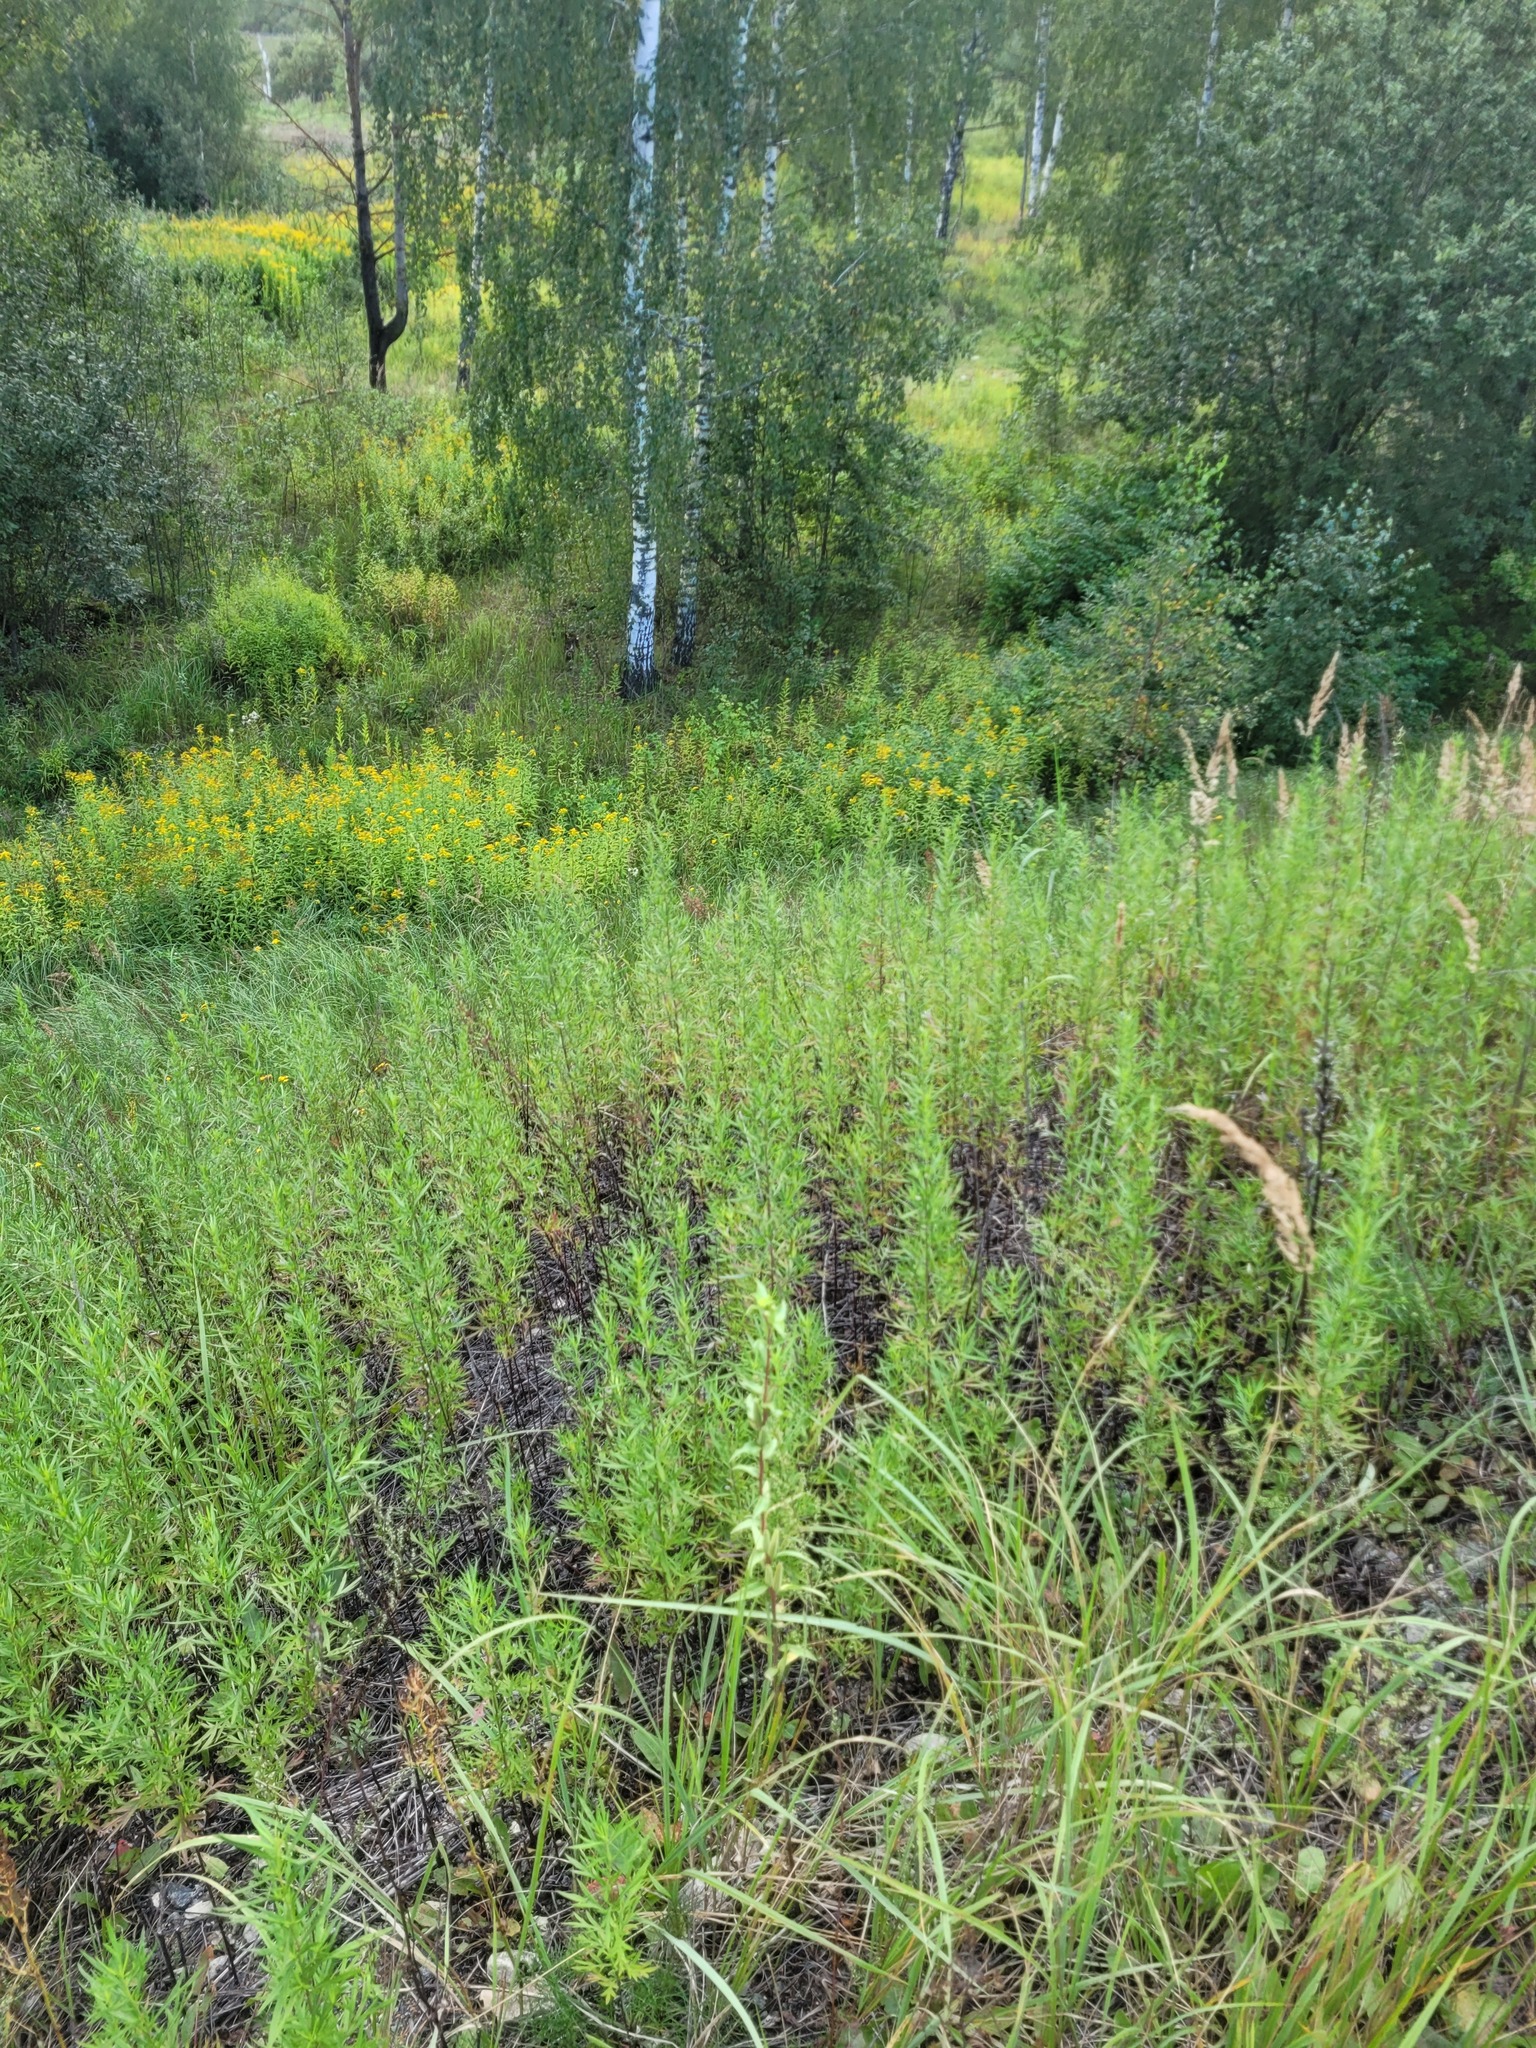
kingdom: Plantae
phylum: Tracheophyta
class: Magnoliopsida
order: Asterales
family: Asteraceae
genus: Artemisia
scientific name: Artemisia umbrosa
